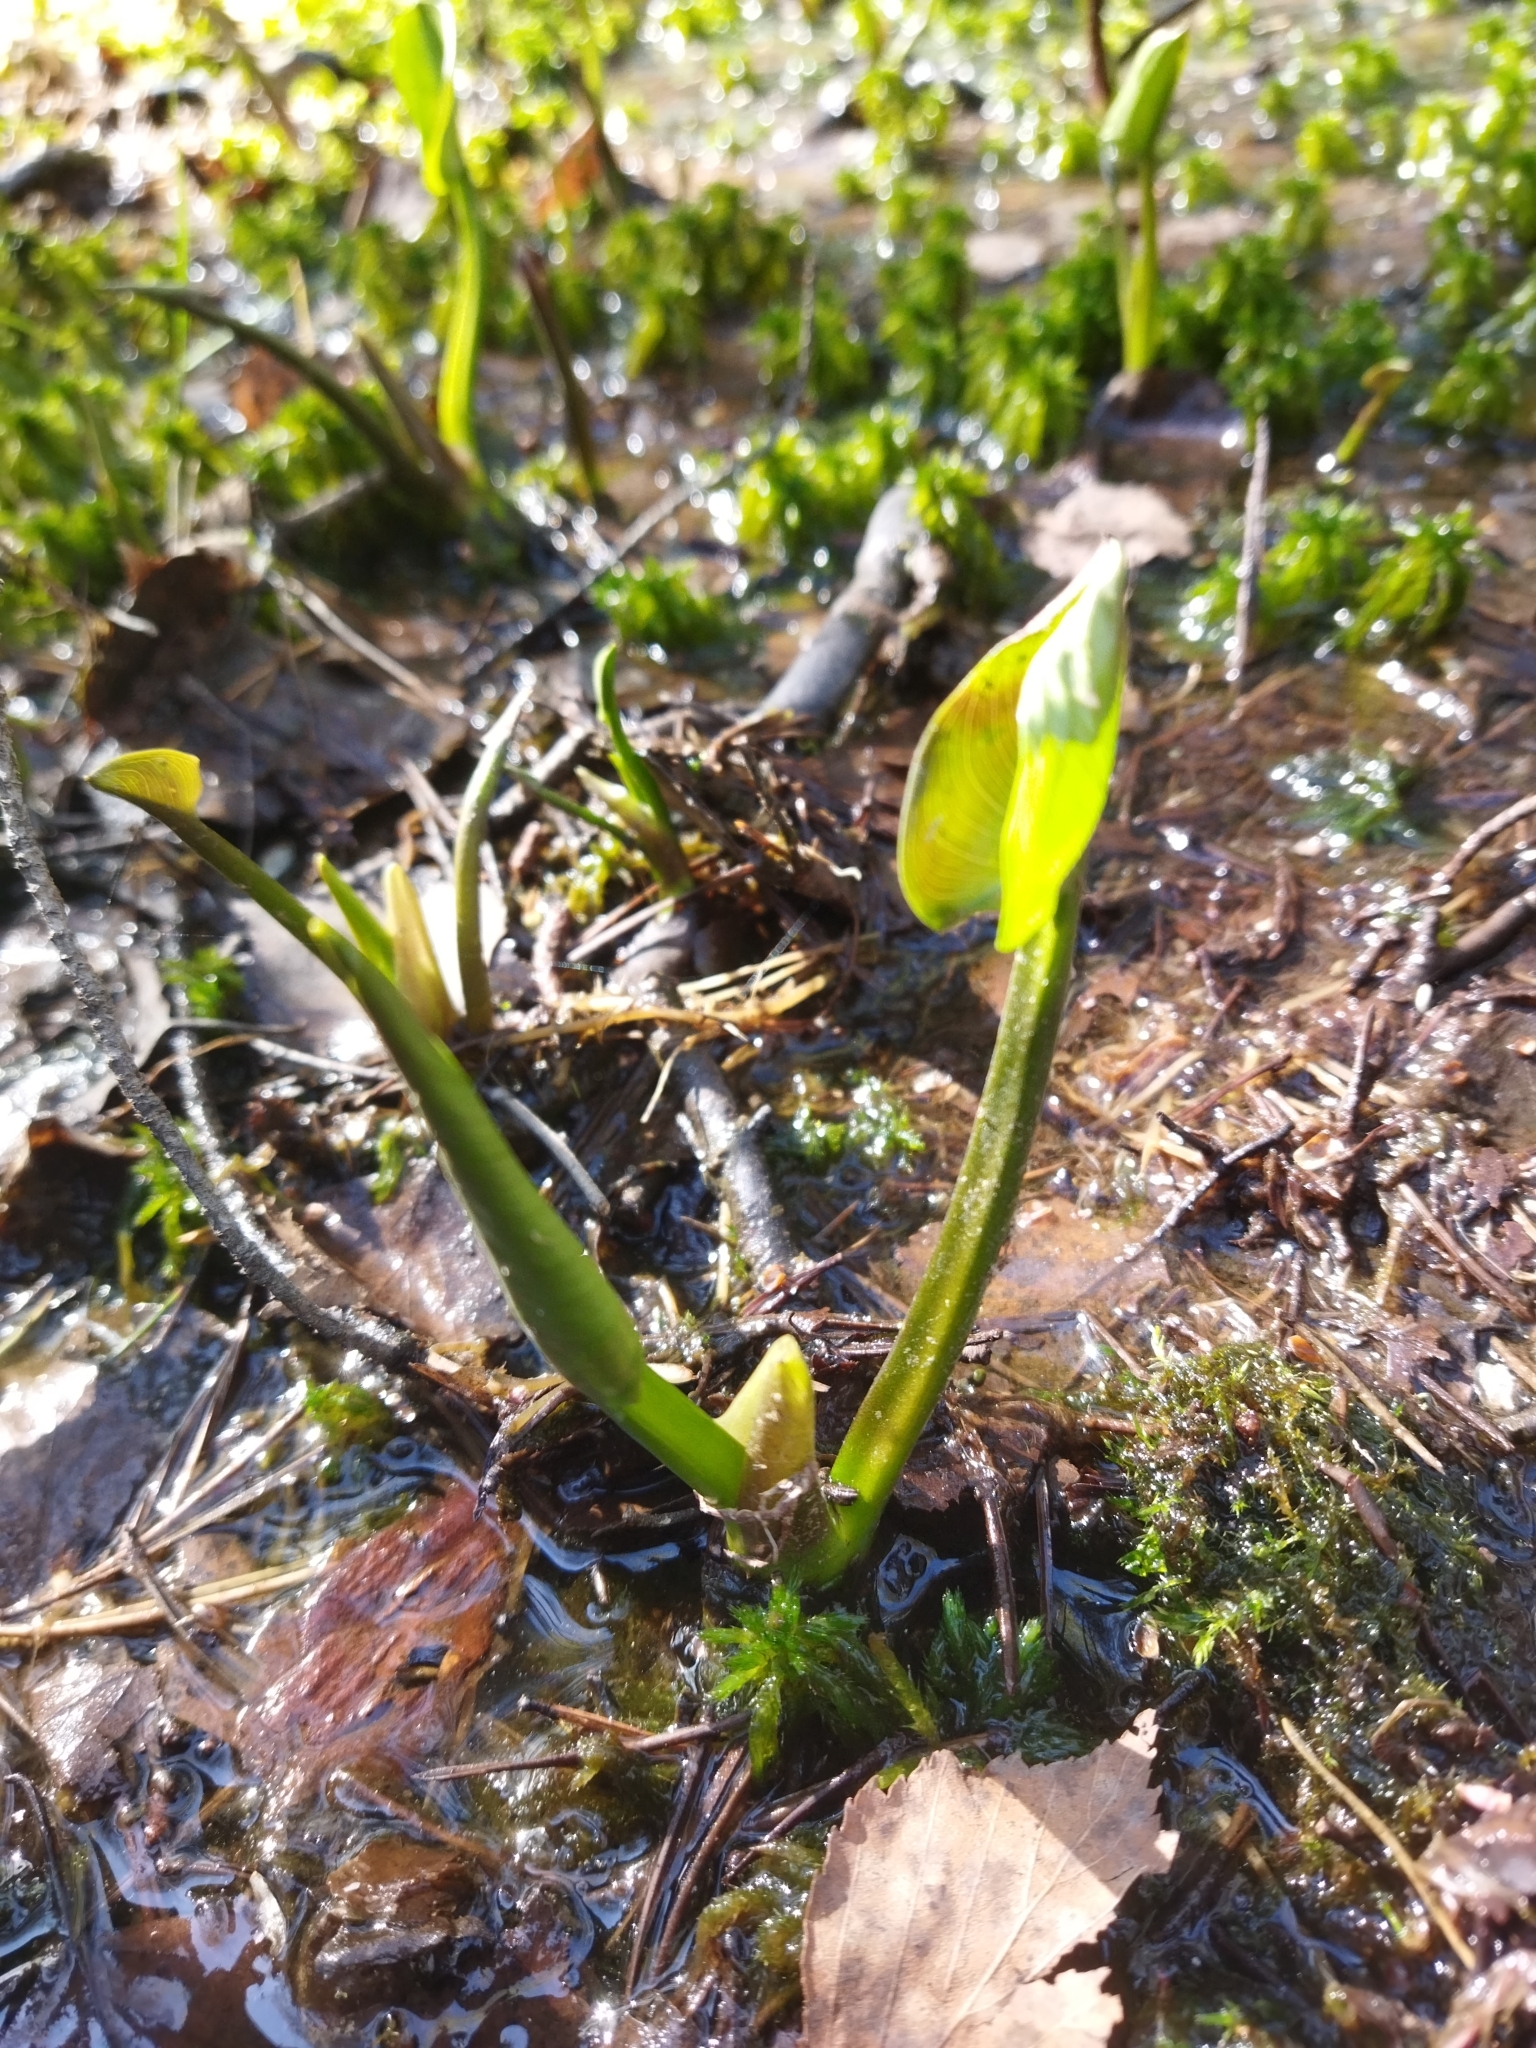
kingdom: Plantae
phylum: Tracheophyta
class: Liliopsida
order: Alismatales
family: Araceae
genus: Calla
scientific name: Calla palustris
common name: Bog arum
